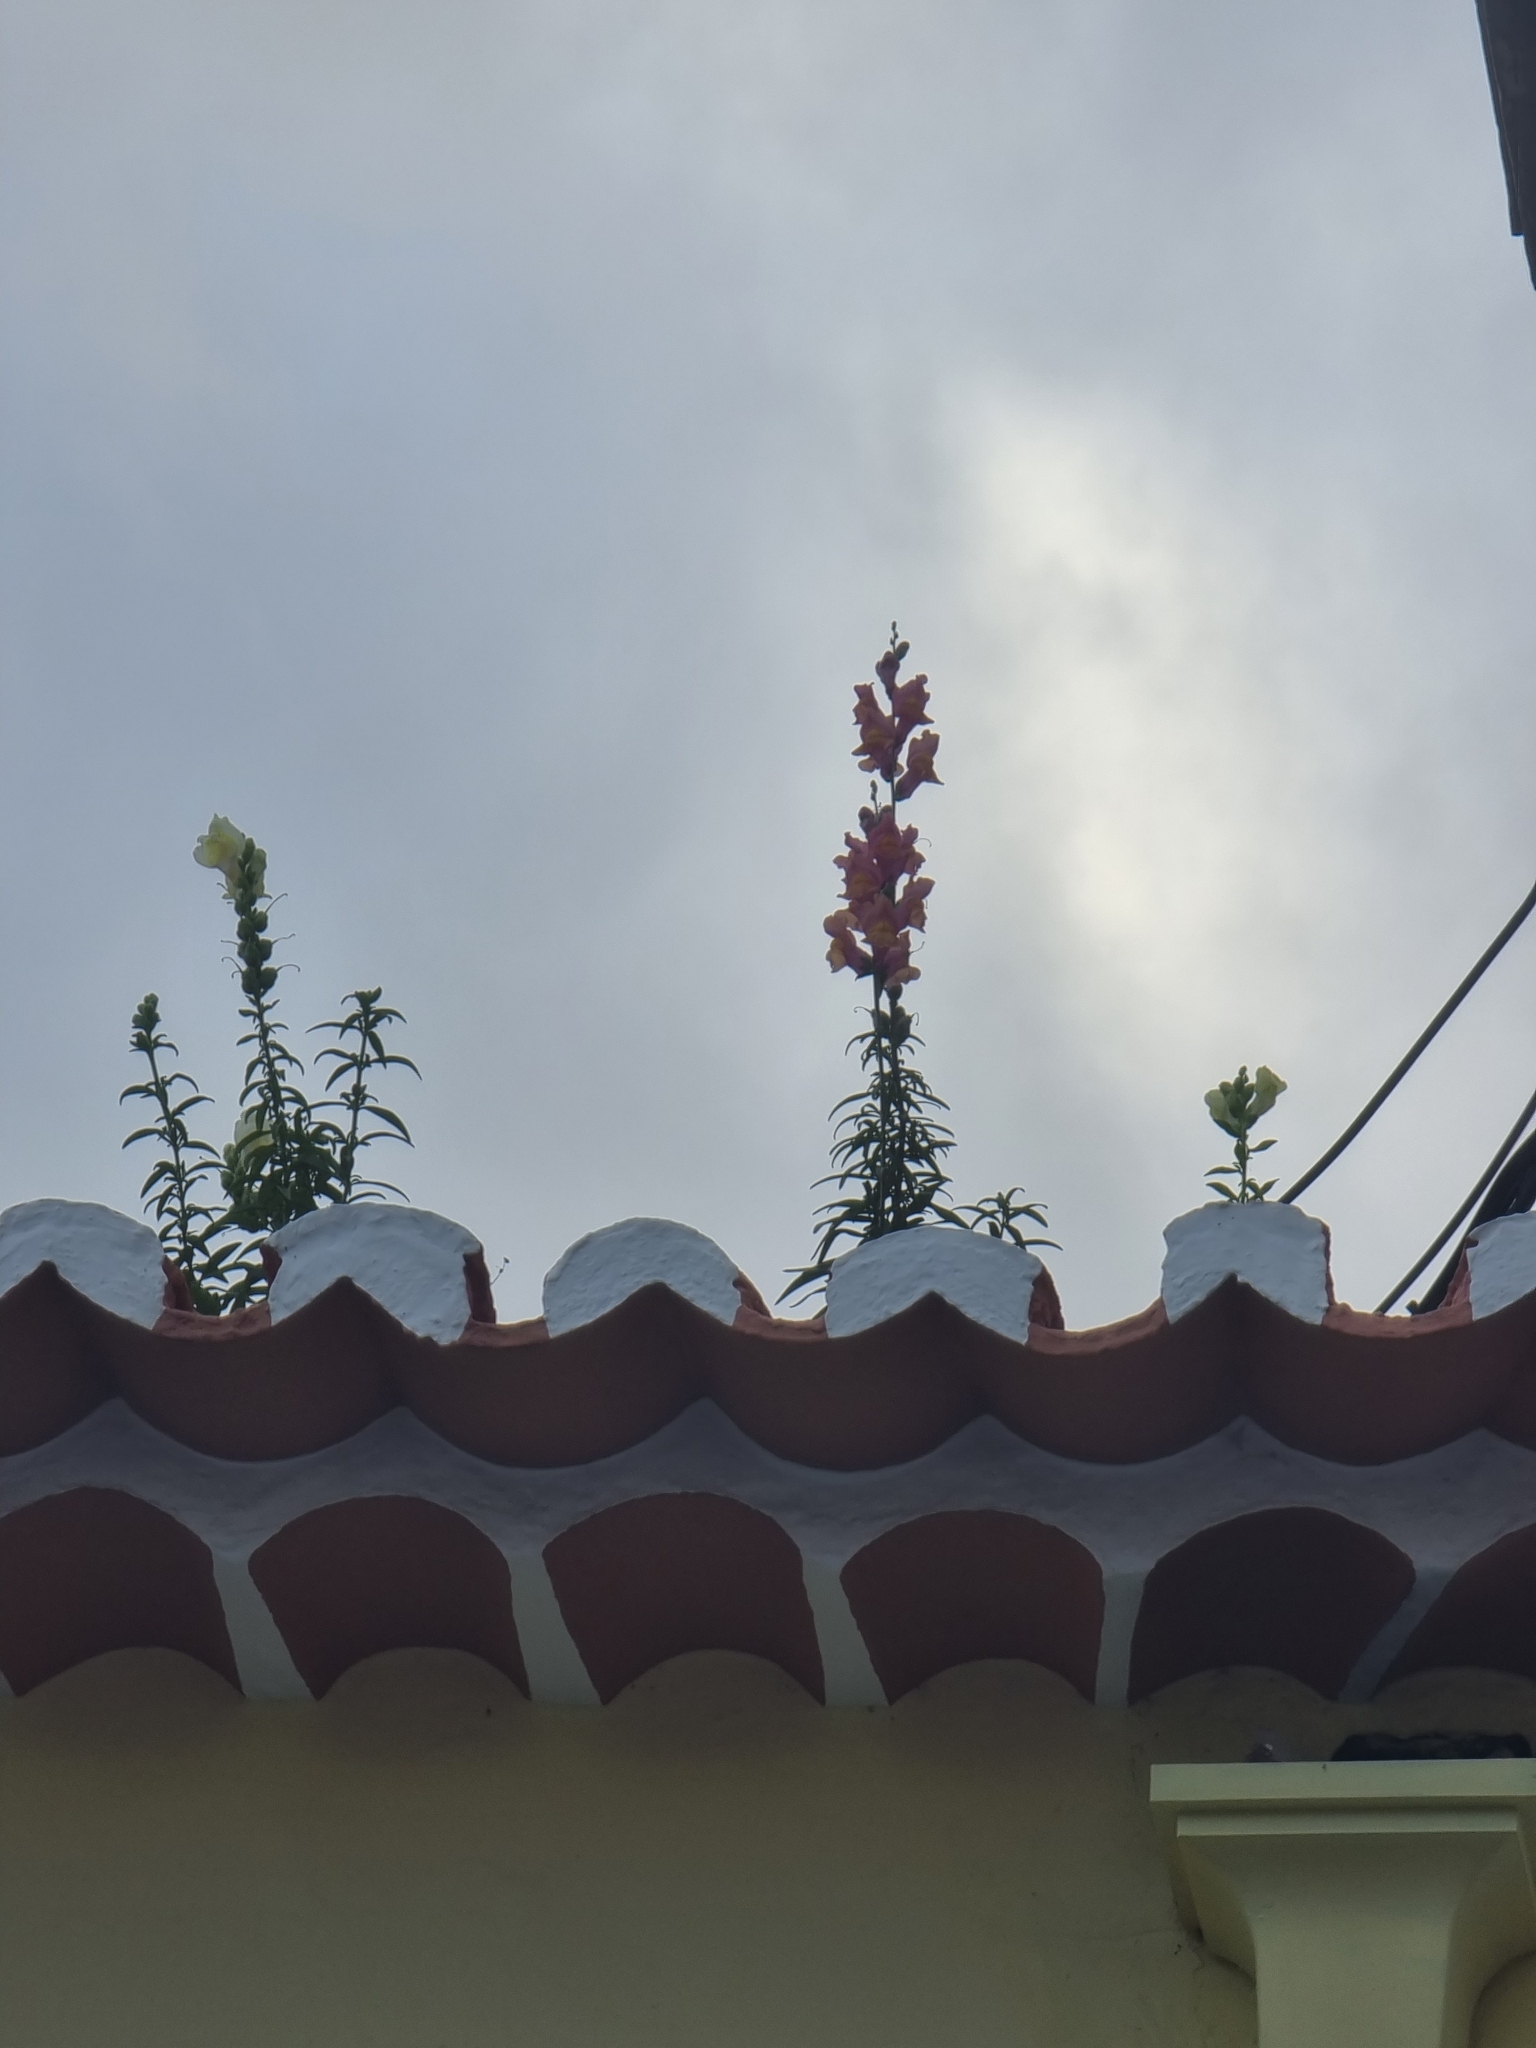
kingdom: Plantae
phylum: Tracheophyta
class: Magnoliopsida
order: Lamiales
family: Plantaginaceae
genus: Antirrhinum
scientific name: Antirrhinum majus
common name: Snapdragon
